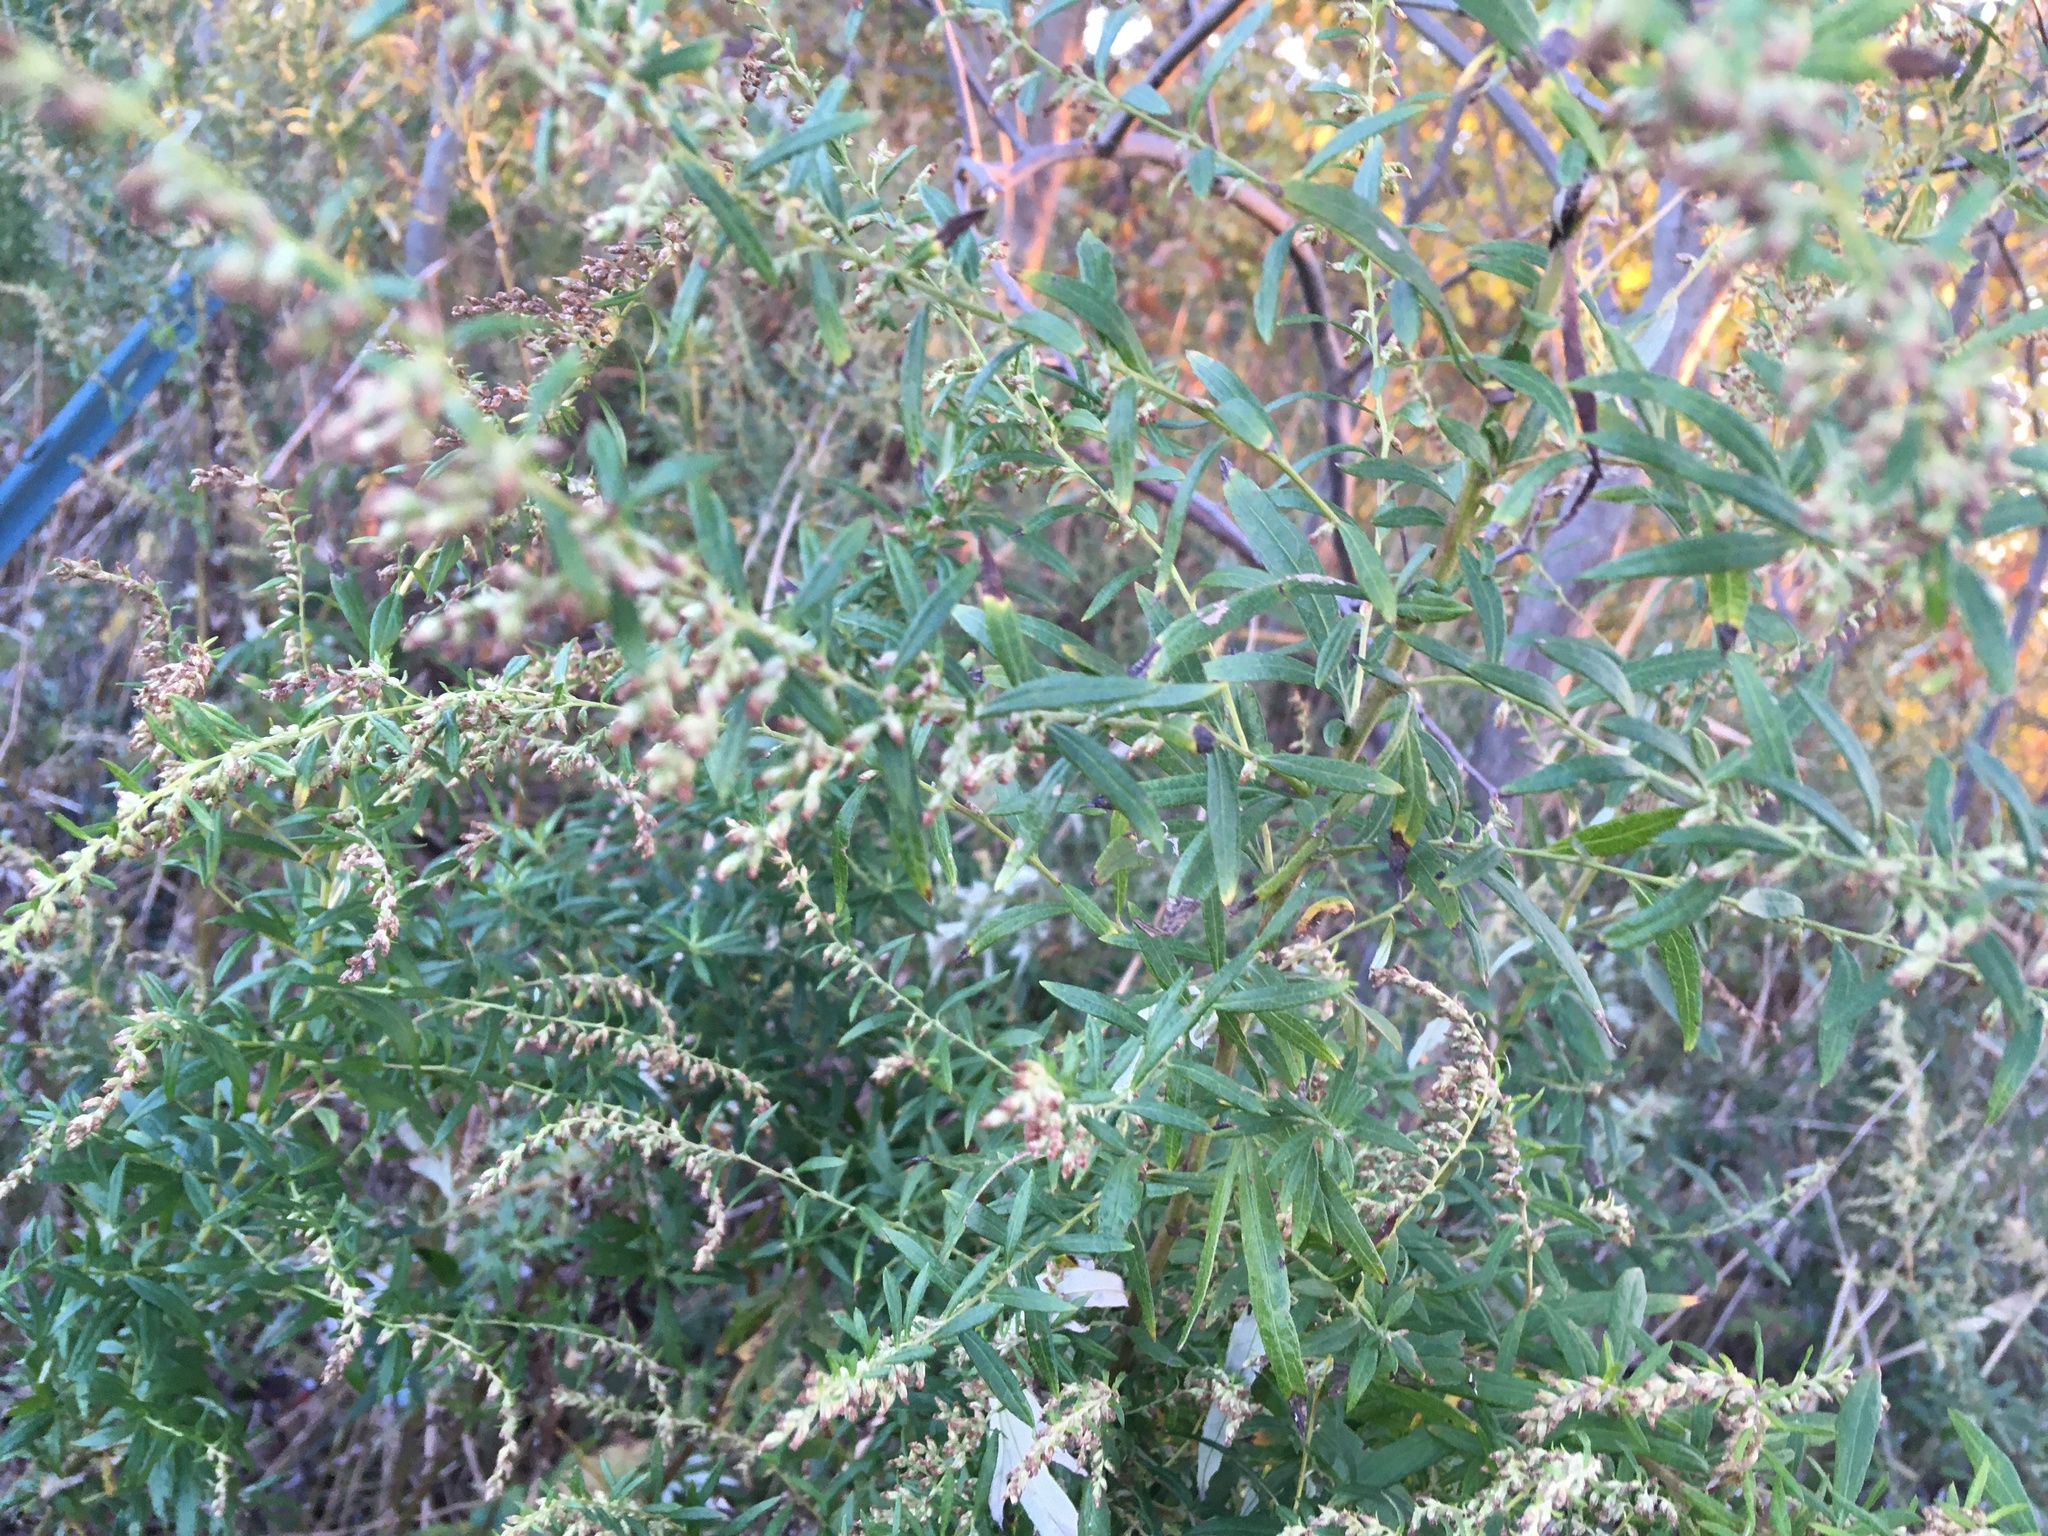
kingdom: Plantae
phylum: Tracheophyta
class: Magnoliopsida
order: Asterales
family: Asteraceae
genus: Artemisia
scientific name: Artemisia vulgaris
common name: Mugwort
